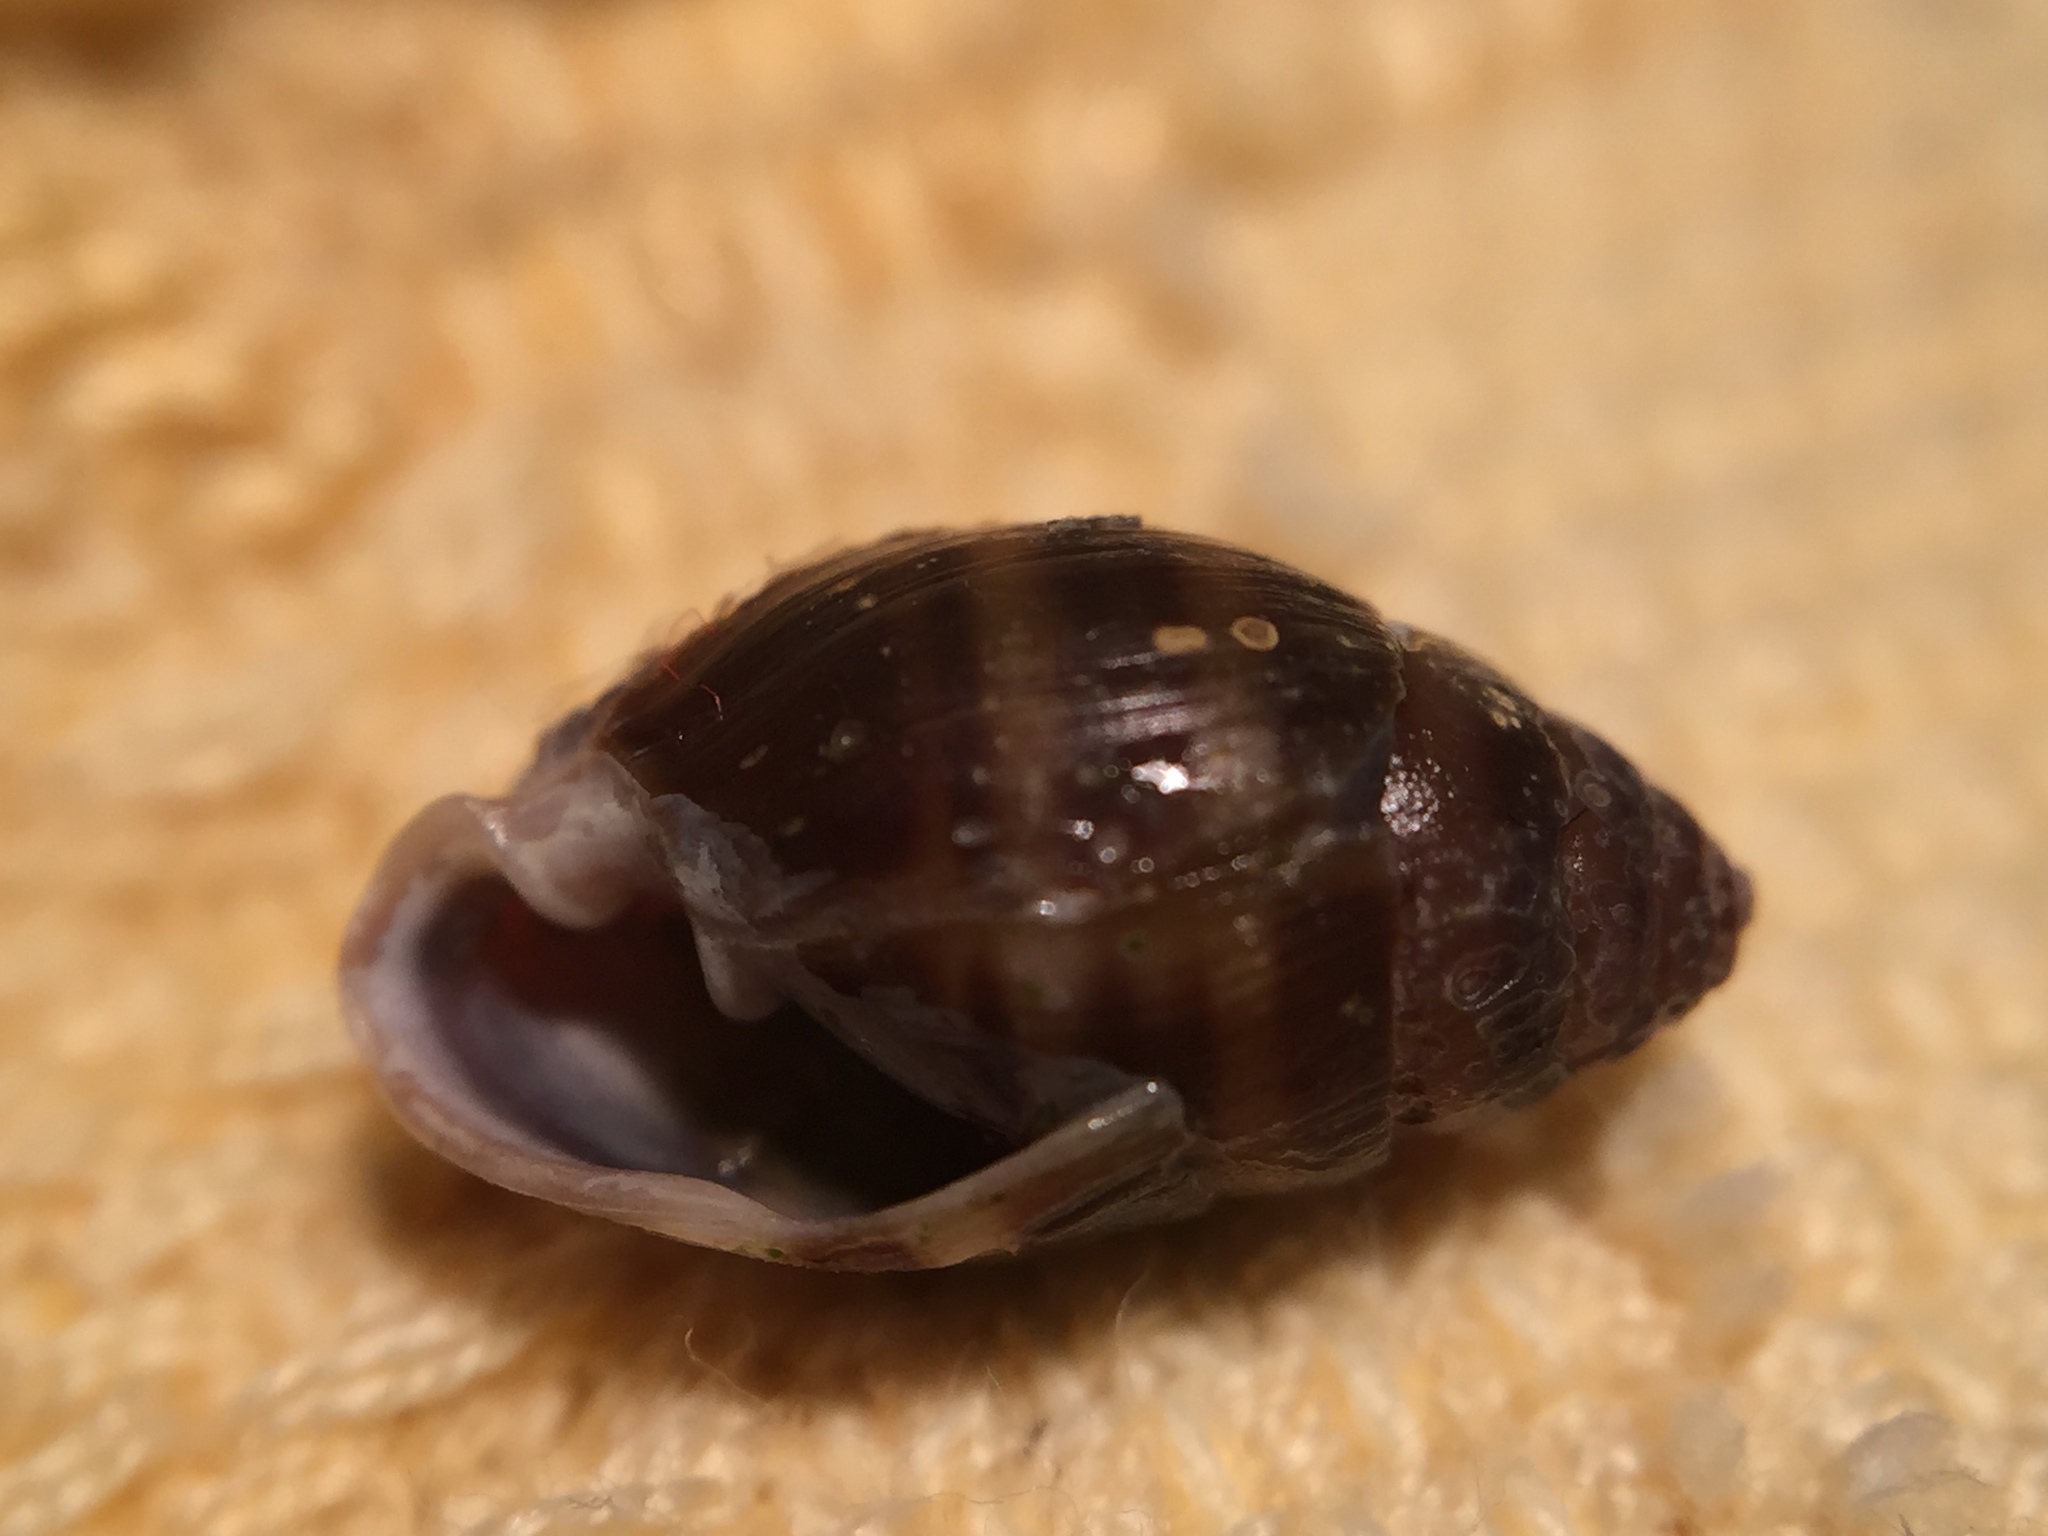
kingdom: Animalia
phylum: Mollusca
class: Gastropoda
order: Ellobiida
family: Ellobiidae
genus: Pleuroloba
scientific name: Pleuroloba costellaris
